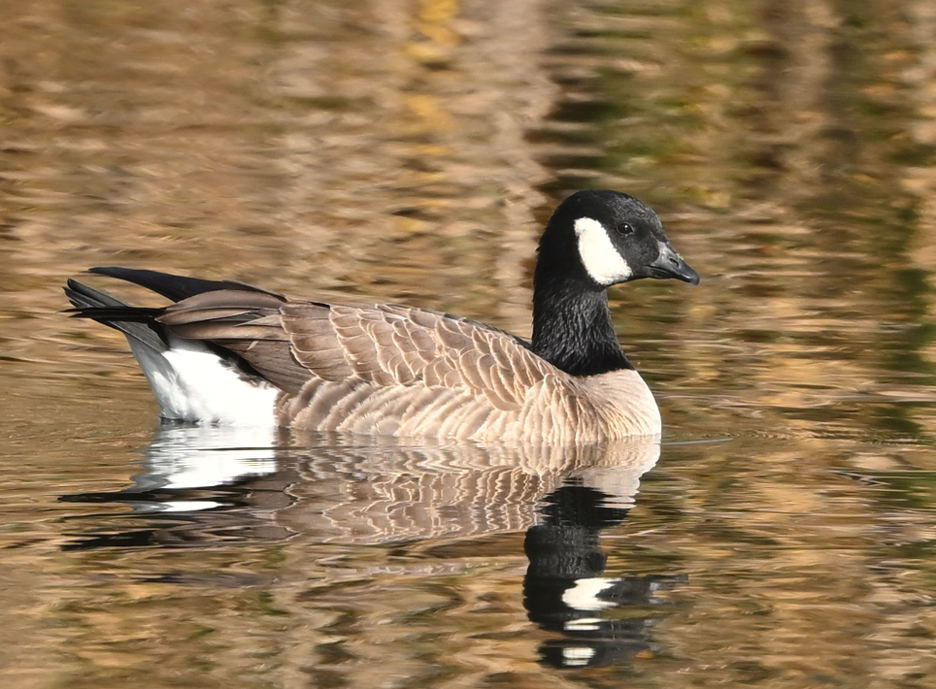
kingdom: Animalia
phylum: Chordata
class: Aves
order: Anseriformes
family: Anatidae
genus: Branta
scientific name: Branta hutchinsii
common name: Cackling goose
